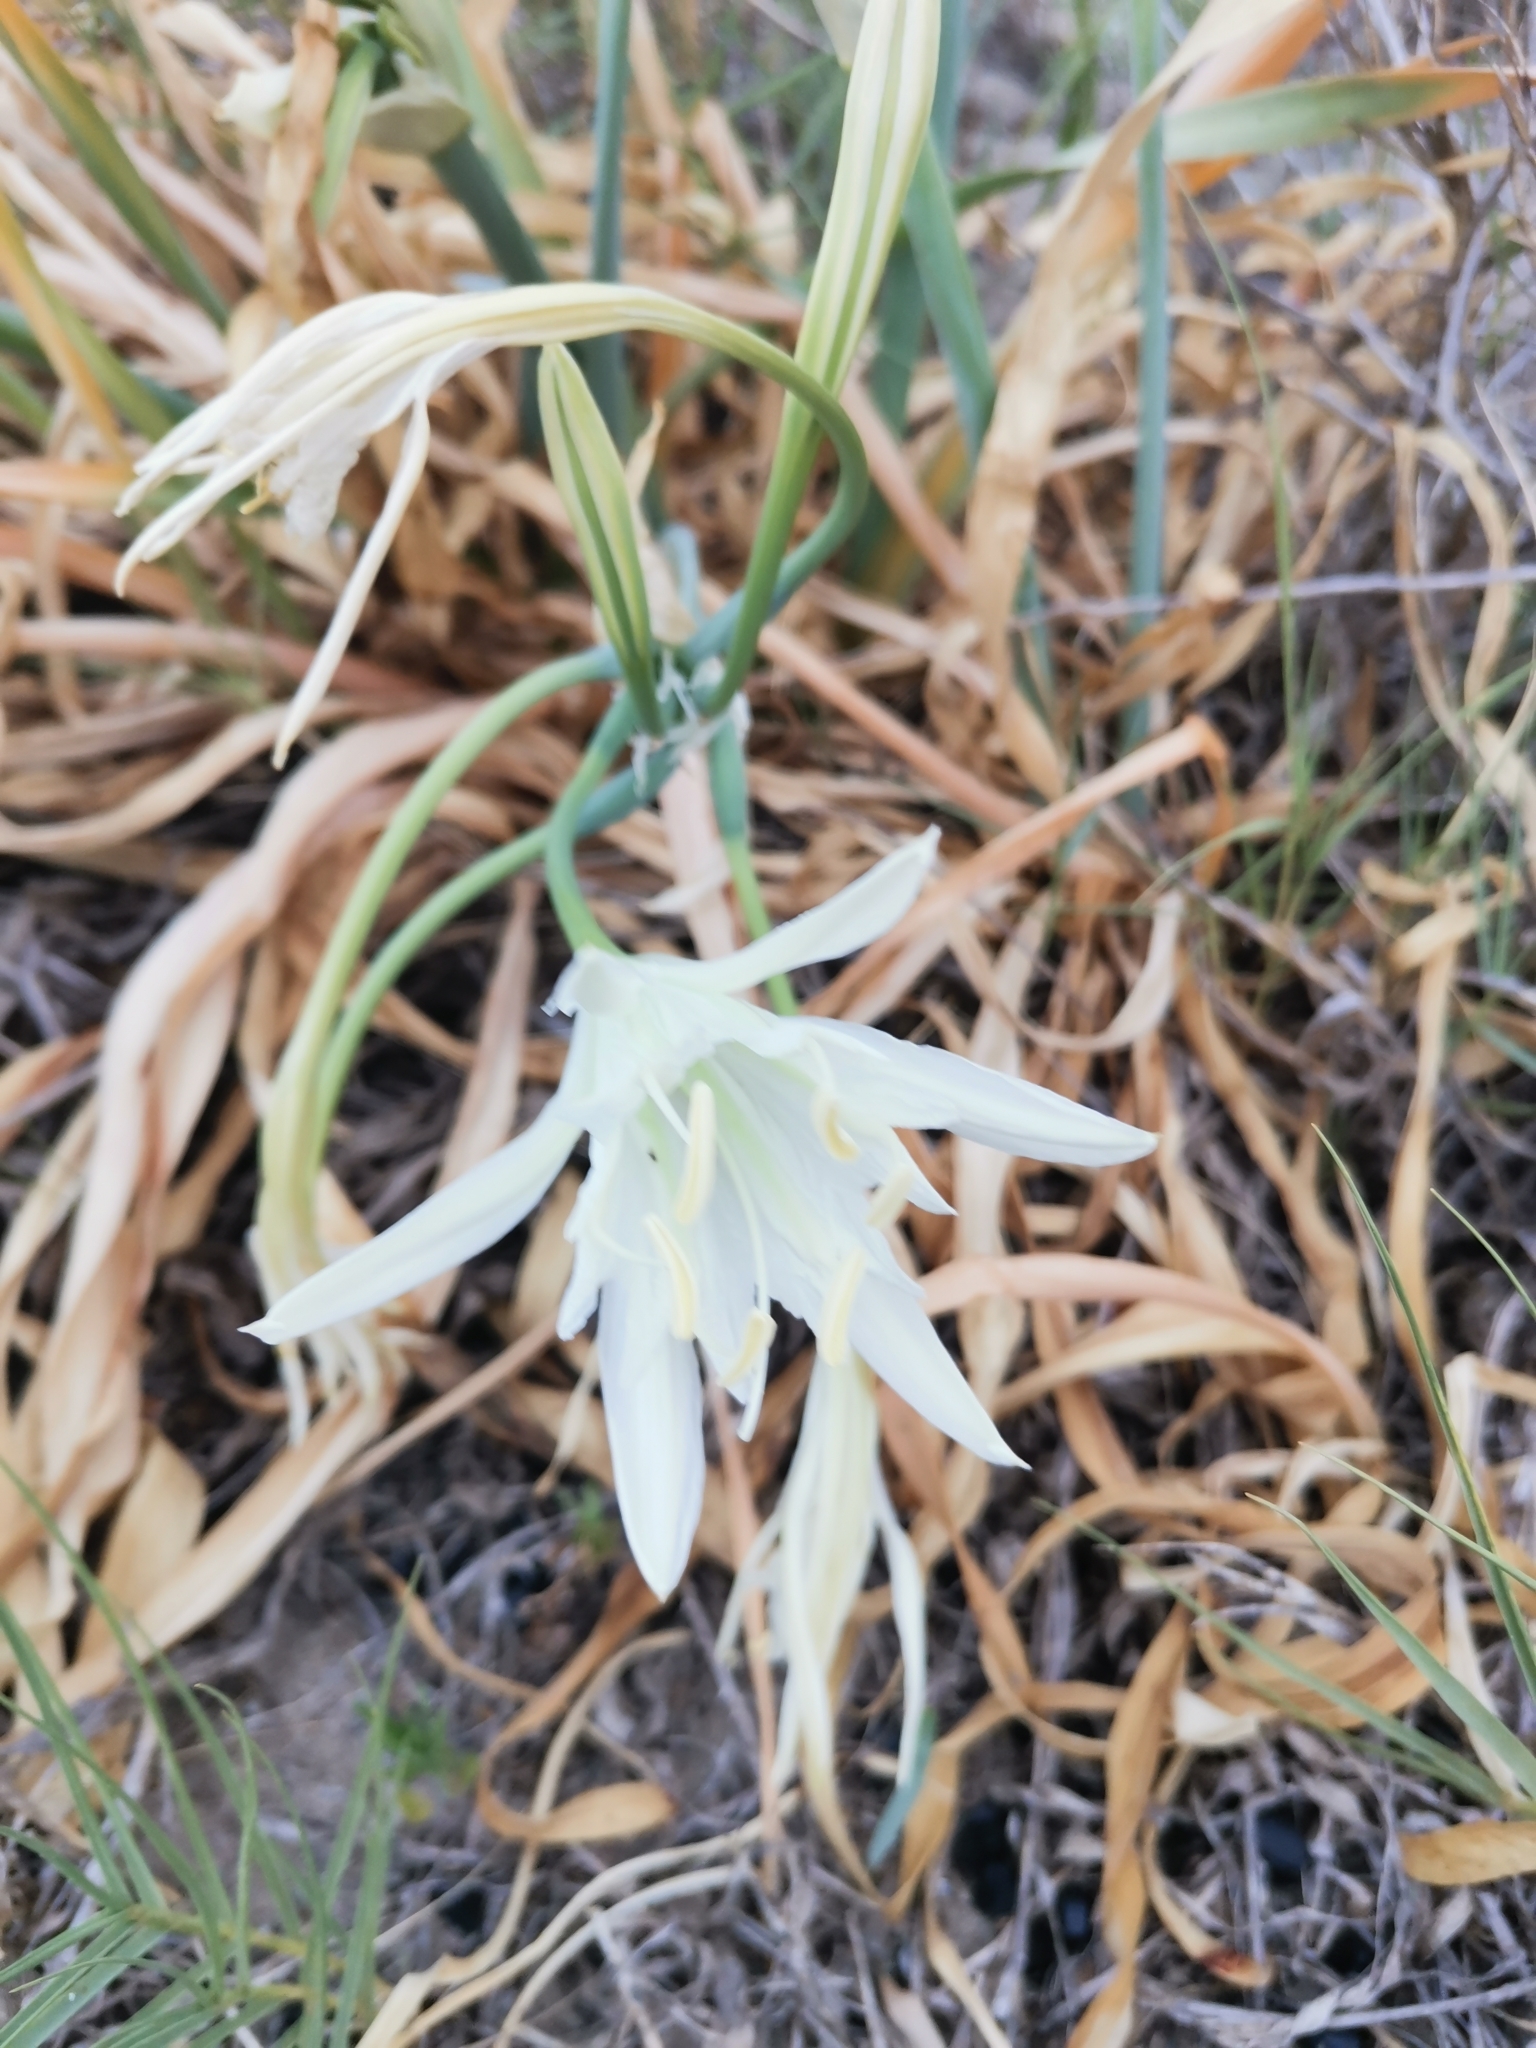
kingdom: Plantae
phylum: Tracheophyta
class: Liliopsida
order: Asparagales
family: Amaryllidaceae
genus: Pancratium
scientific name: Pancratium maritimum
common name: Sea-daffodil
